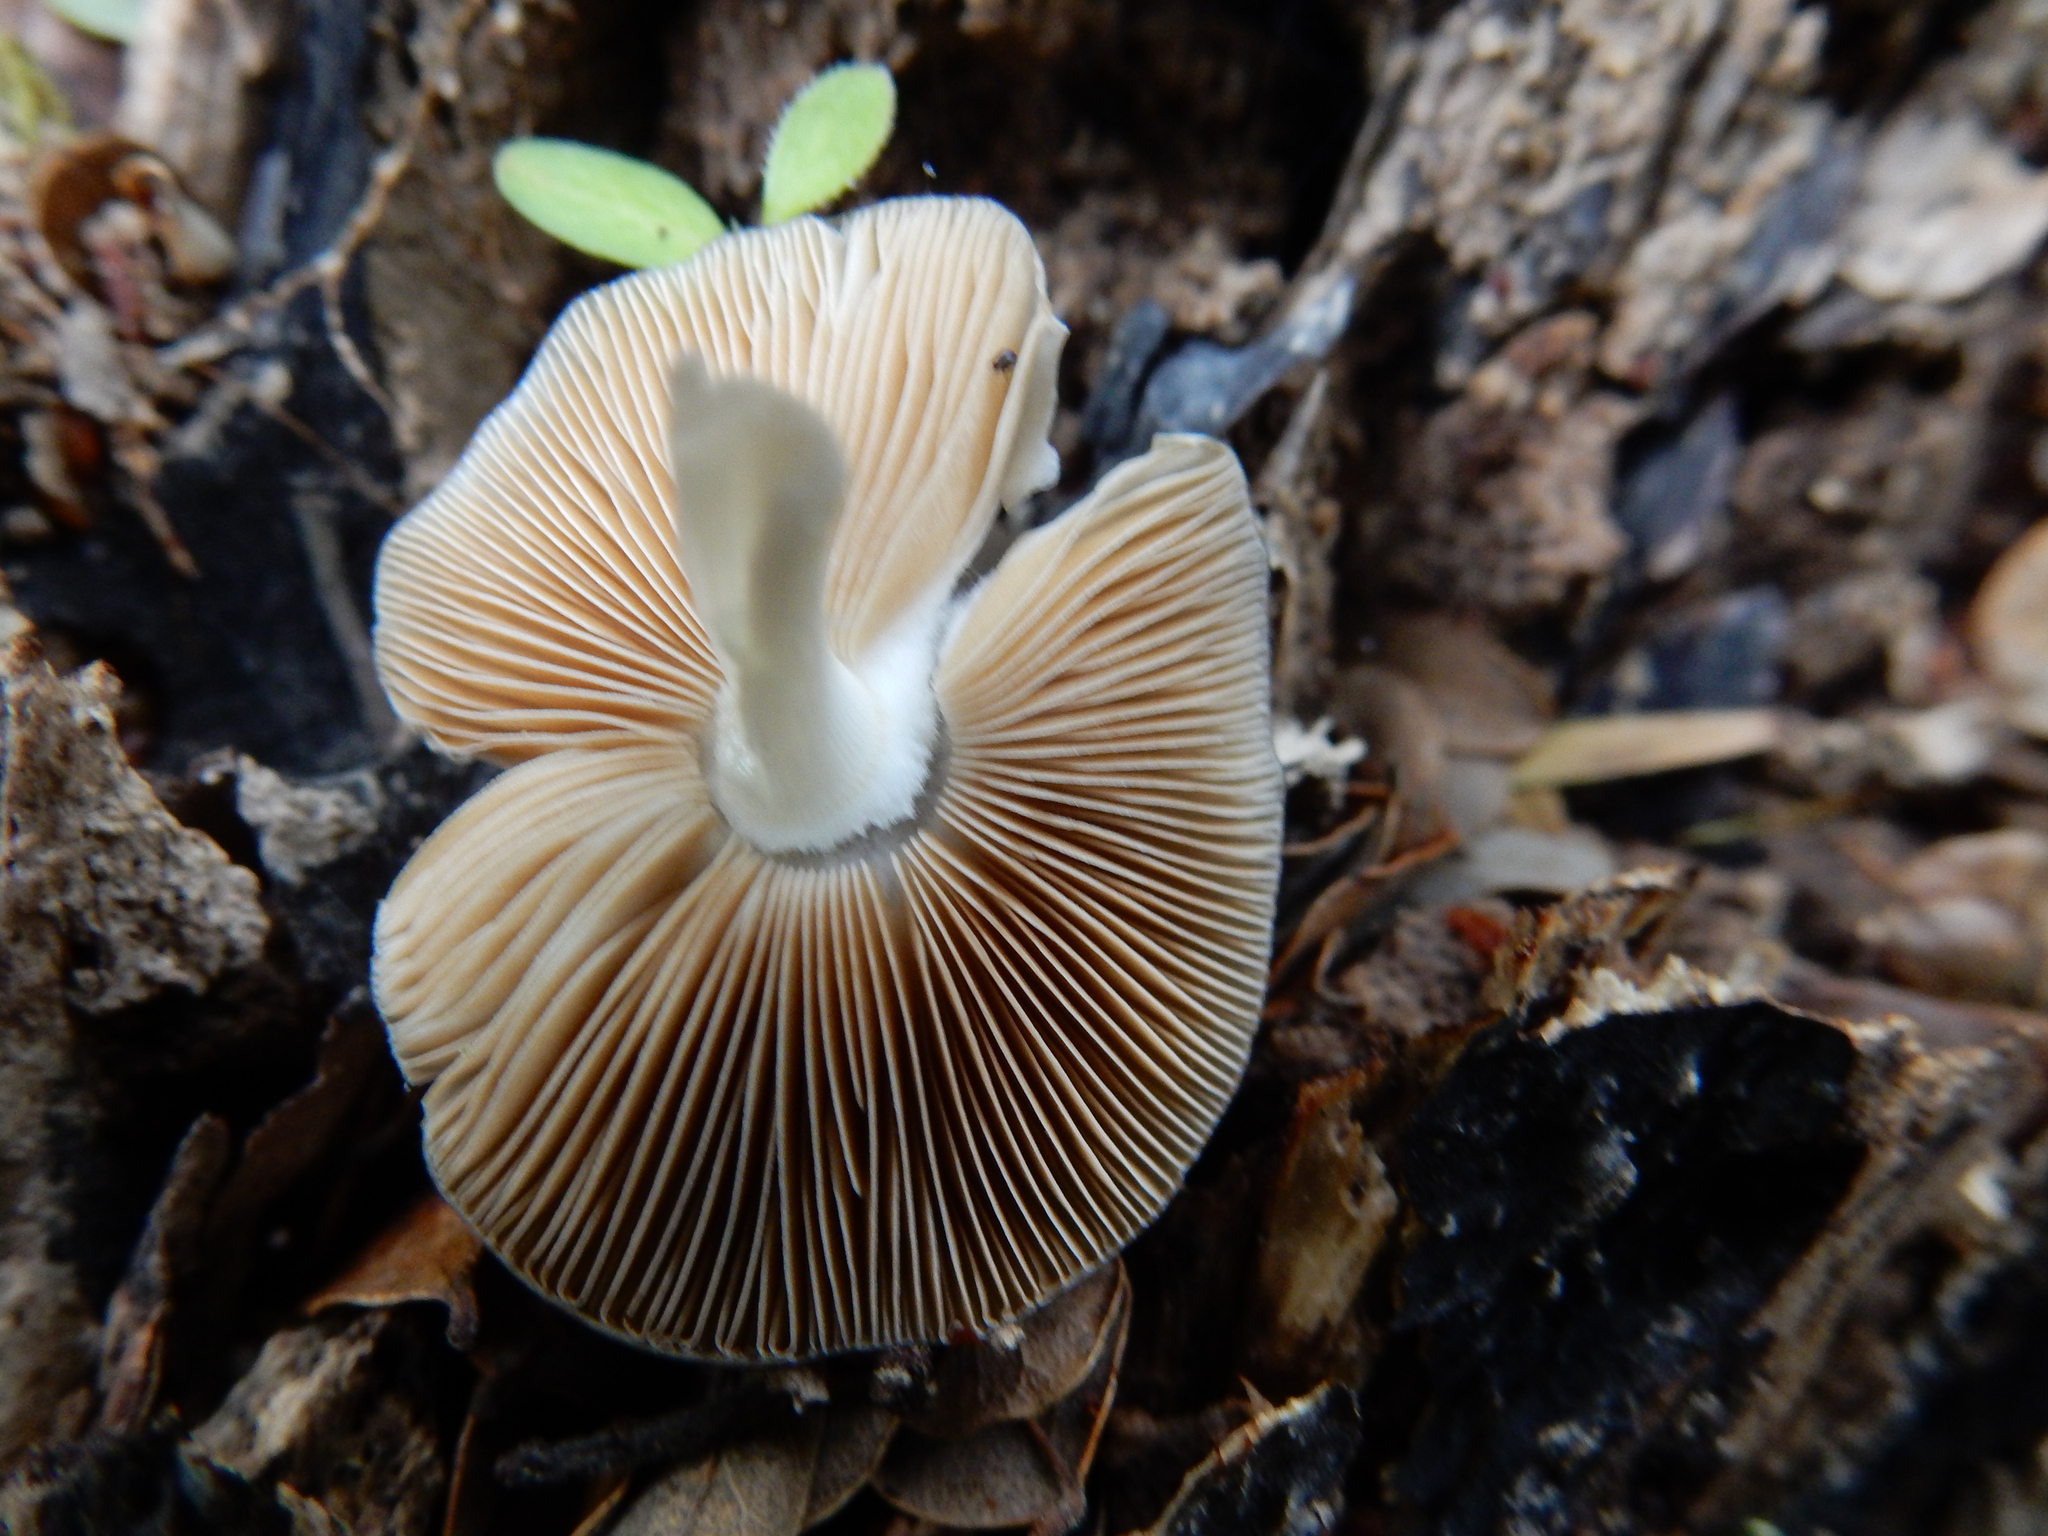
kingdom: Fungi
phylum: Basidiomycota
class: Agaricomycetes
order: Agaricales
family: Bolbitiaceae
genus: Bolbitius
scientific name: Bolbitius muscicola
